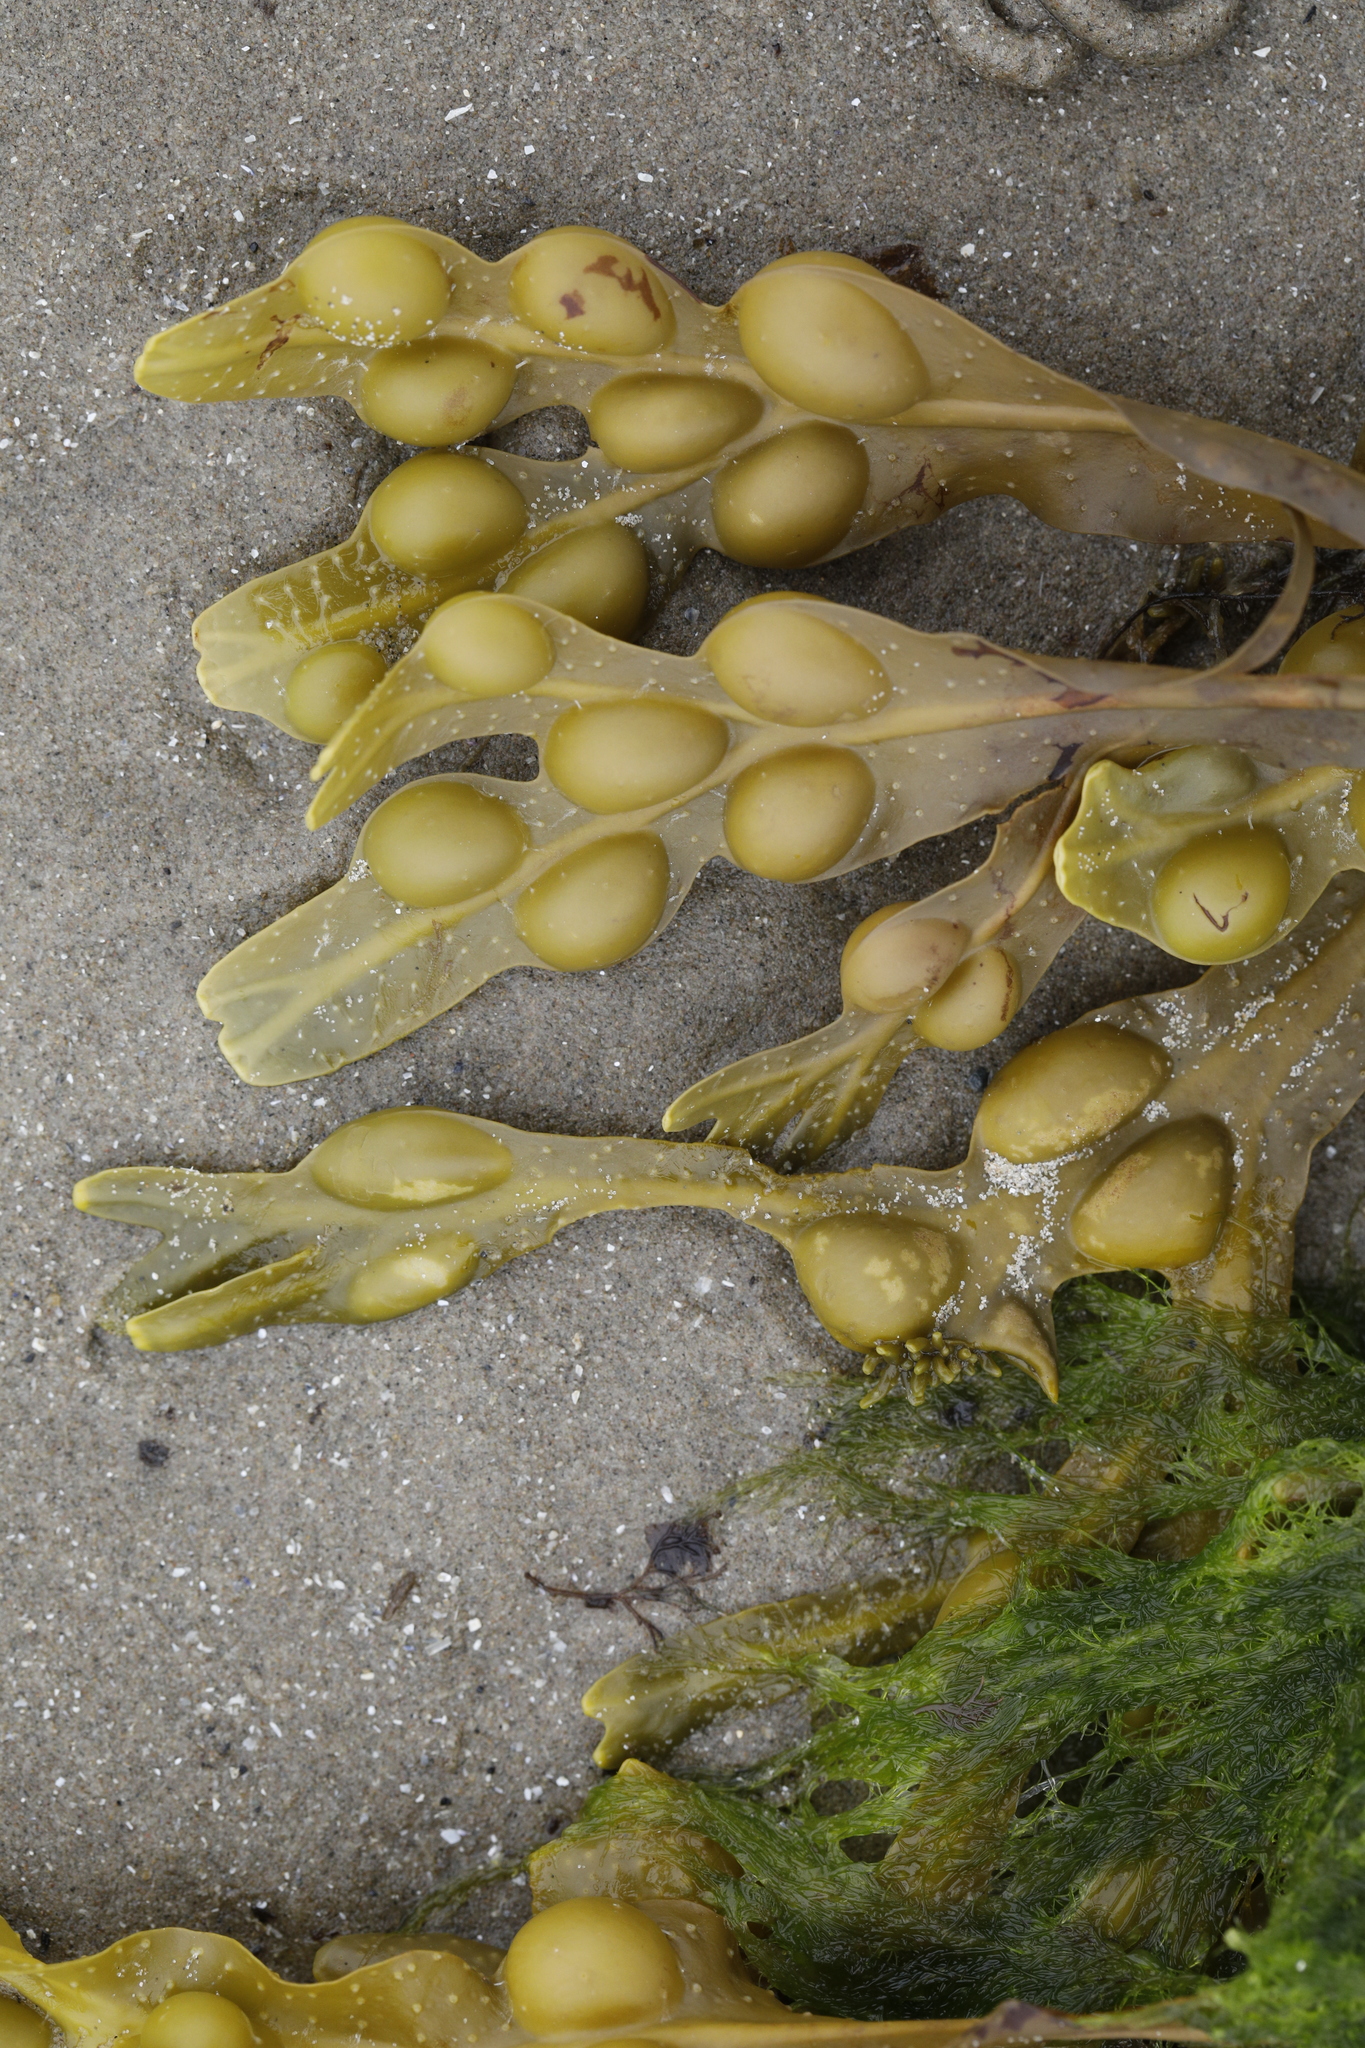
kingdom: Chromista
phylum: Ochrophyta
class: Phaeophyceae
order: Fucales
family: Fucaceae
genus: Fucus
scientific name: Fucus vesiculosus
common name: Bladder wrack
